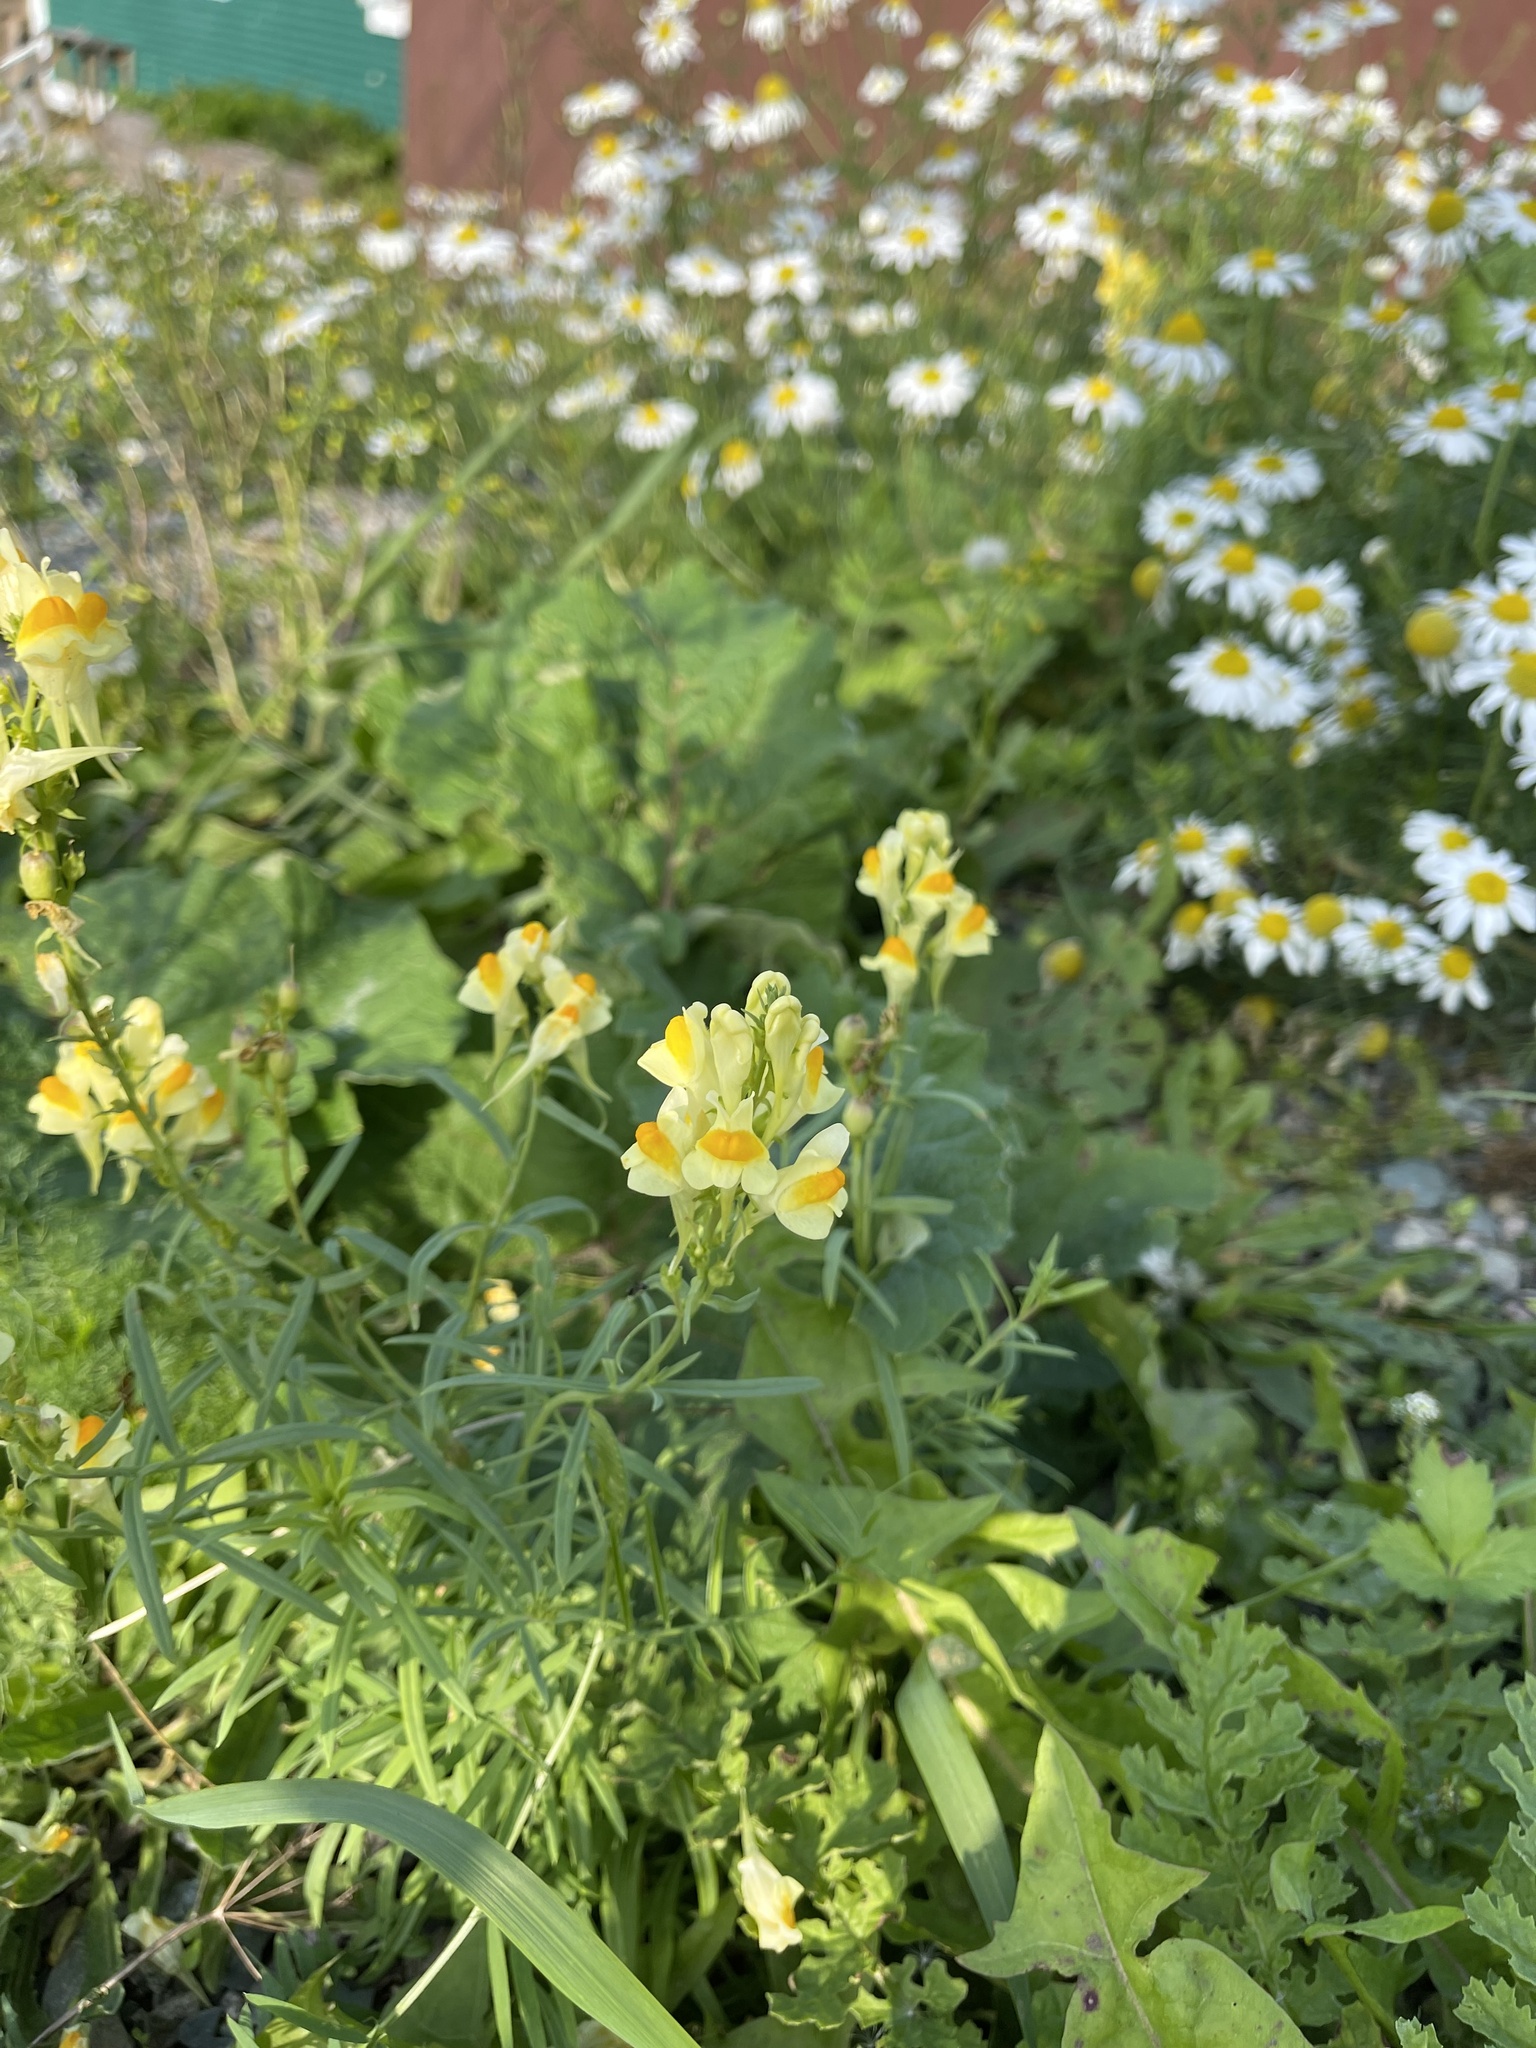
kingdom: Plantae
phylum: Tracheophyta
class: Magnoliopsida
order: Lamiales
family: Plantaginaceae
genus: Linaria
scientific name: Linaria vulgaris
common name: Butter and eggs
